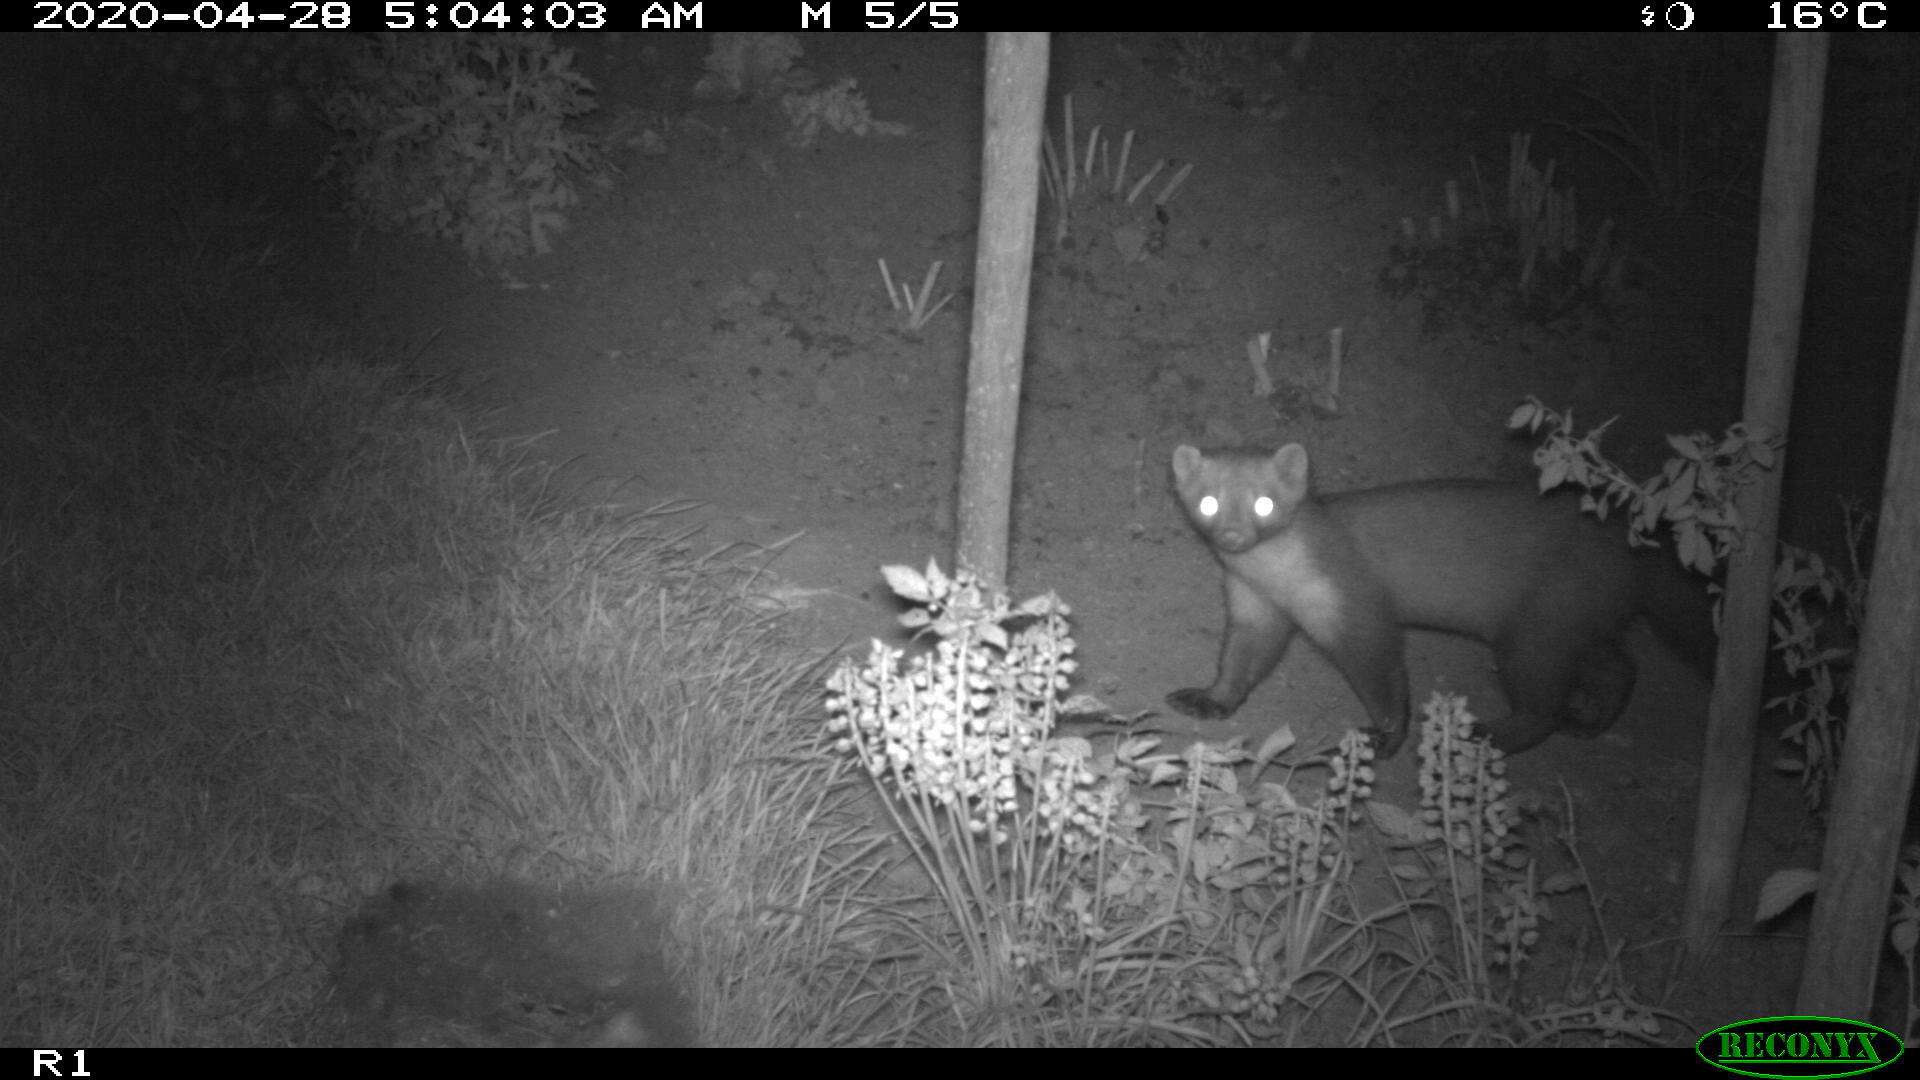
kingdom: Animalia
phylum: Chordata
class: Mammalia
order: Carnivora
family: Mustelidae
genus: Martes
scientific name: Martes foina
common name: Beech marten
